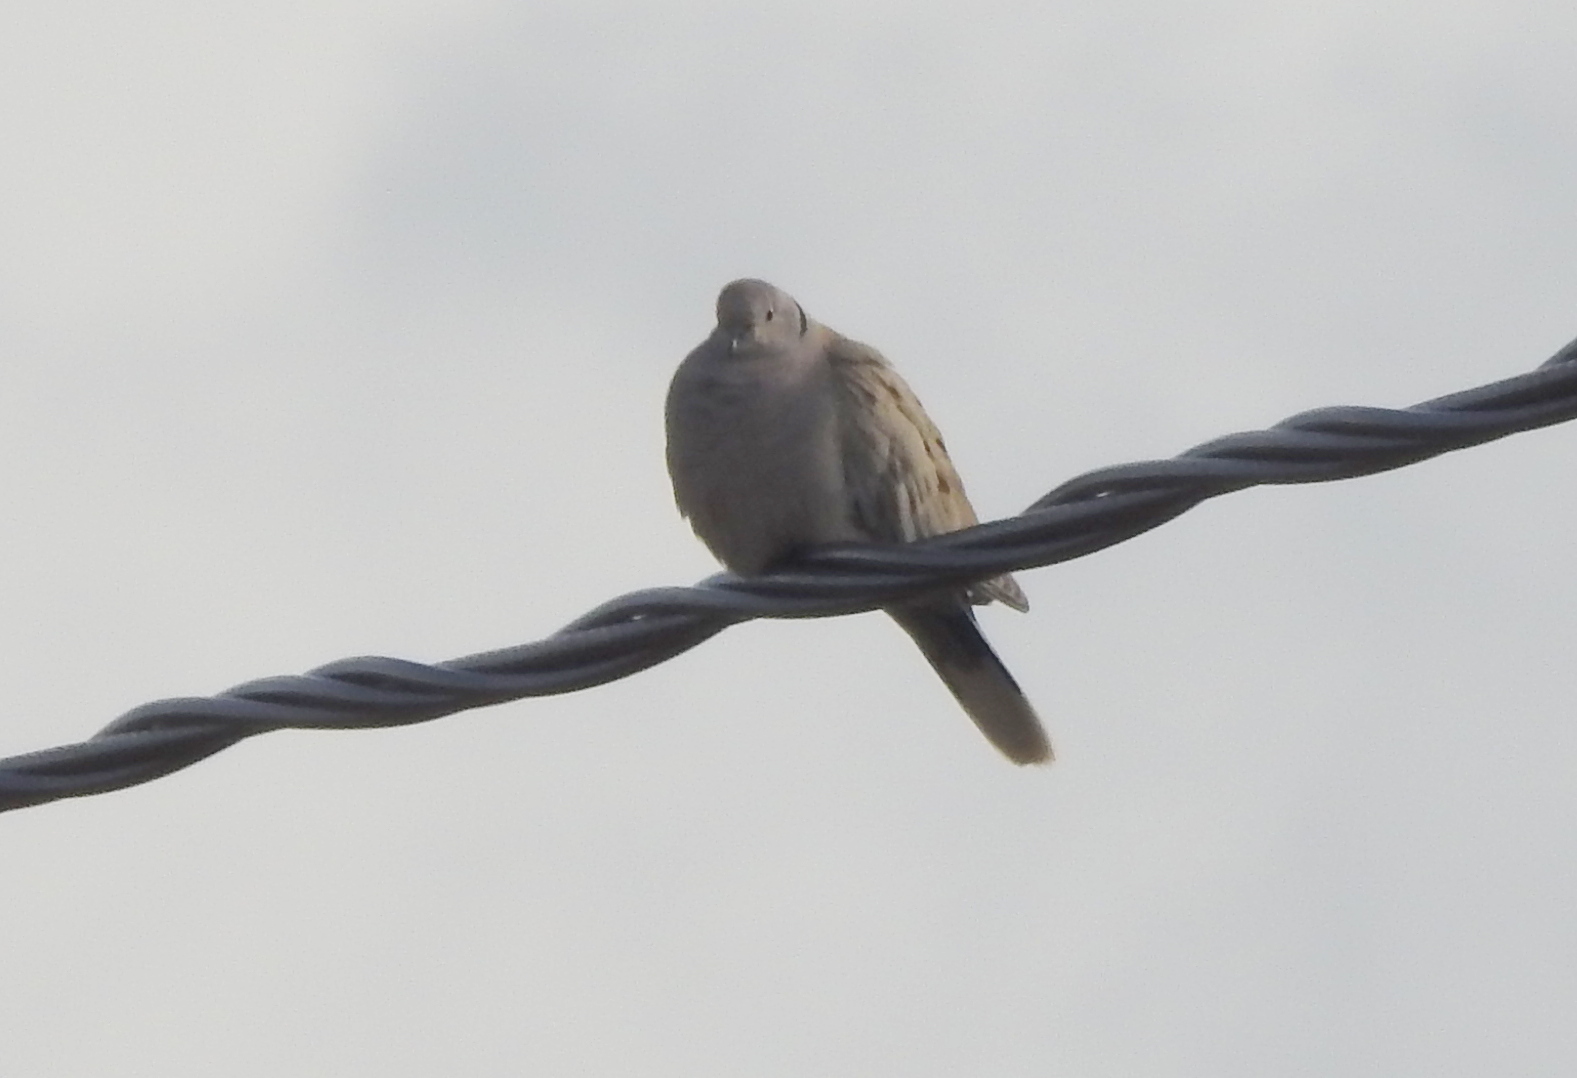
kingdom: Animalia
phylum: Chordata
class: Aves
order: Columbiformes
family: Columbidae
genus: Streptopelia
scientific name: Streptopelia decaocto
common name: Eurasian collared dove
